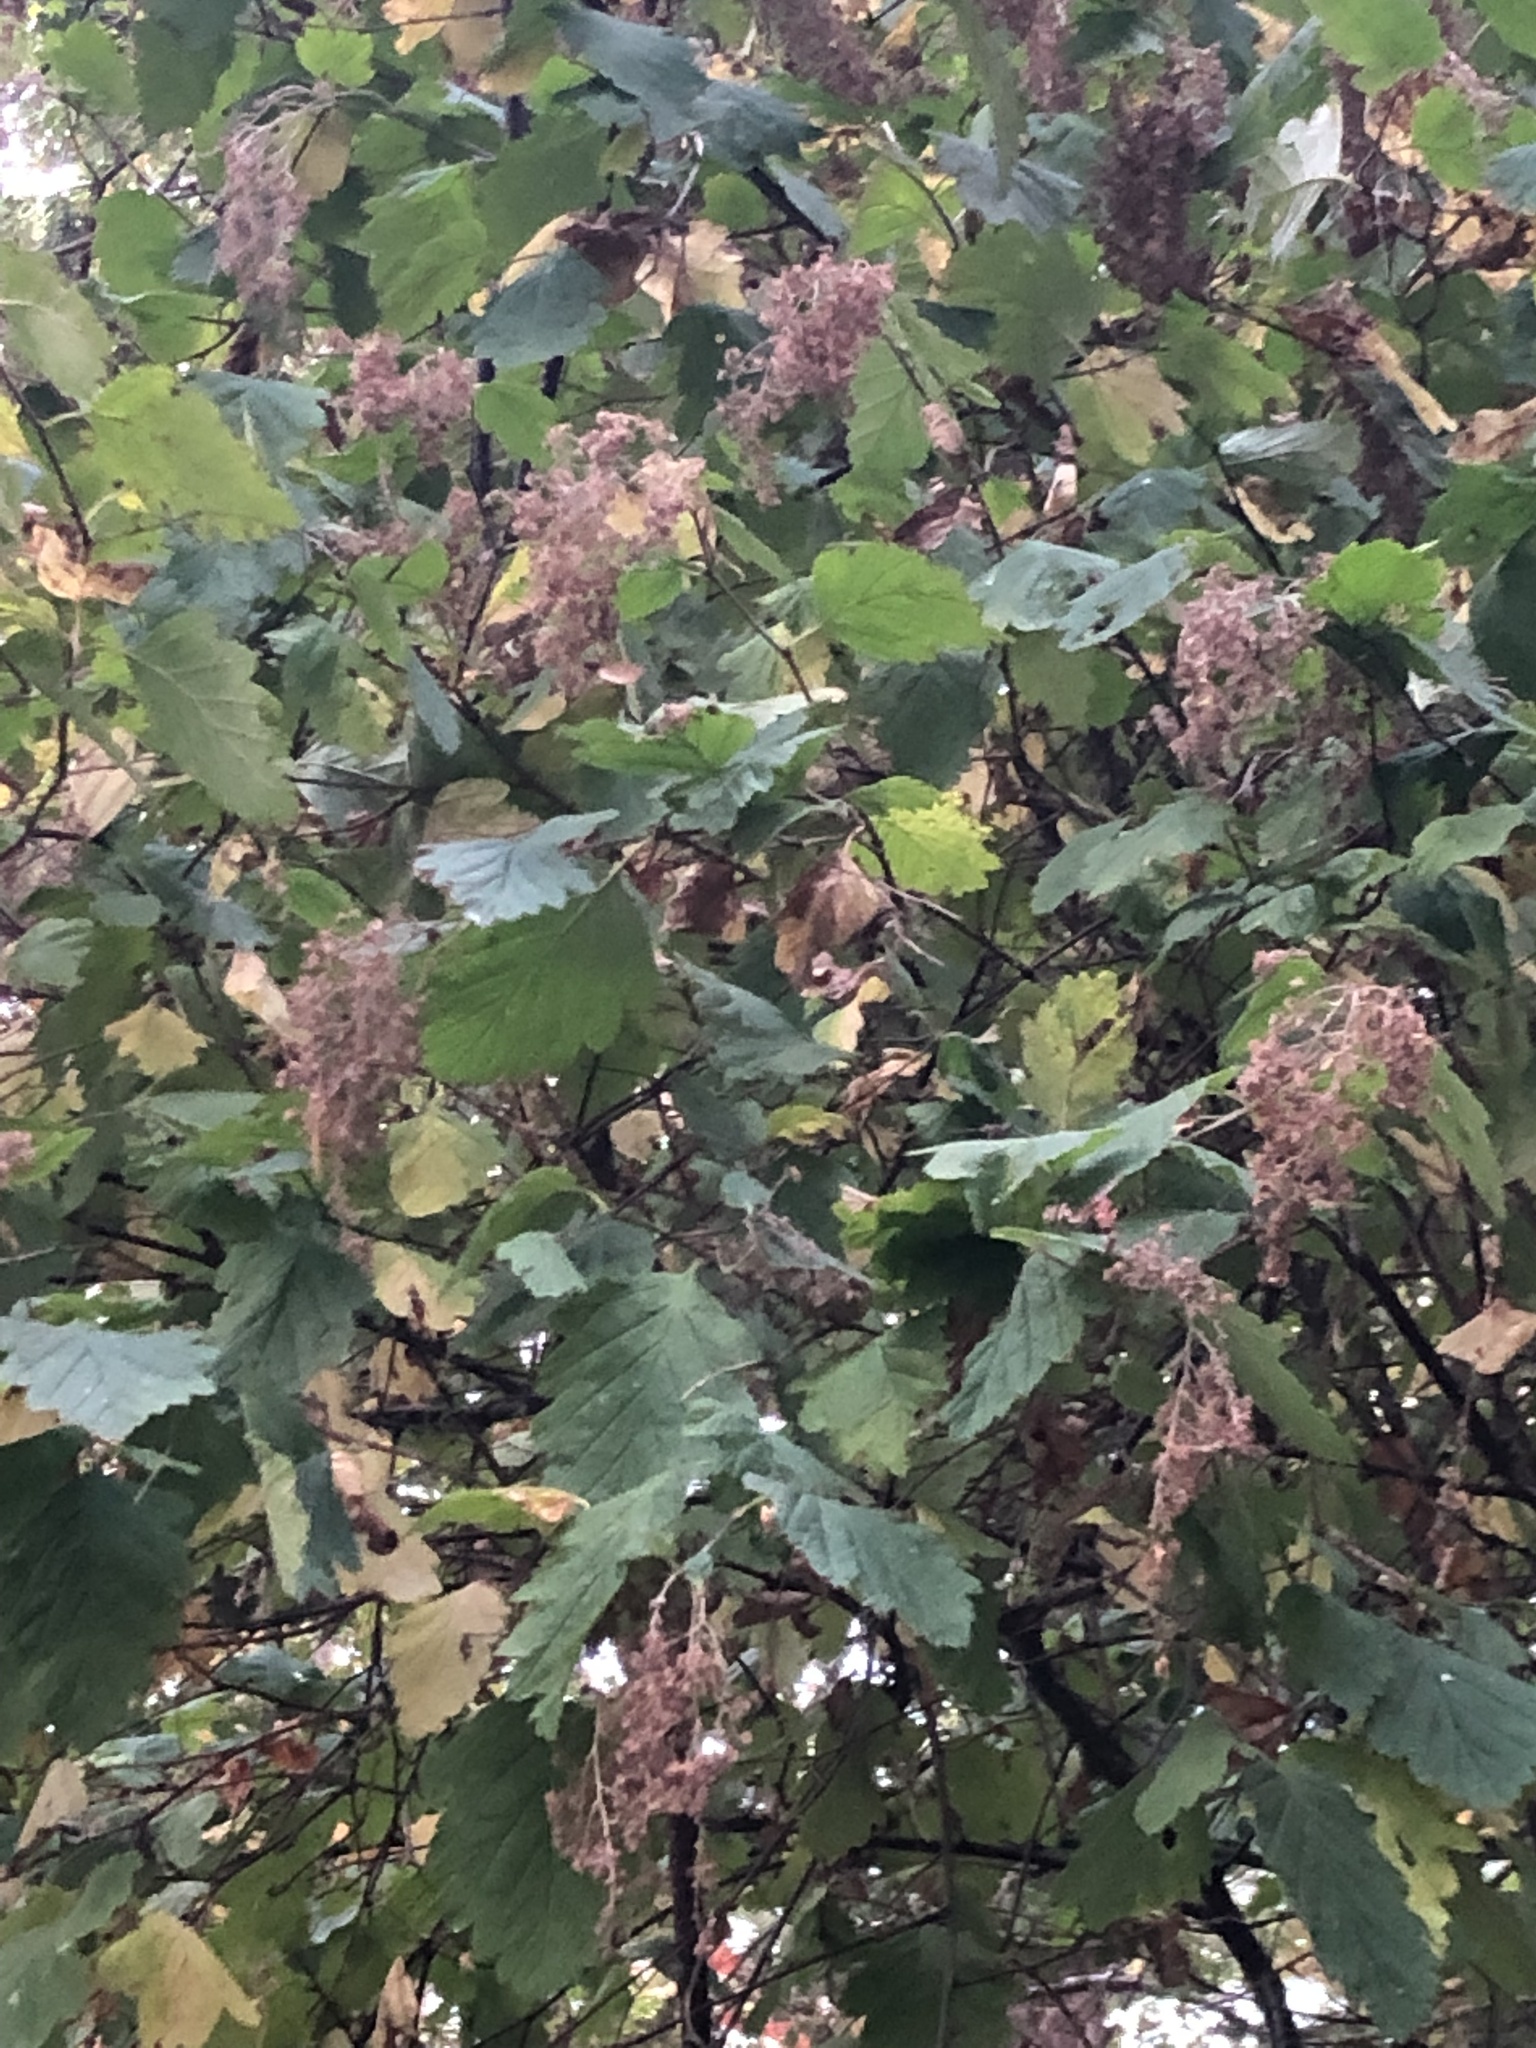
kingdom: Plantae
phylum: Tracheophyta
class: Magnoliopsida
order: Rosales
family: Rosaceae
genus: Holodiscus
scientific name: Holodiscus discolor
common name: Oceanspray
